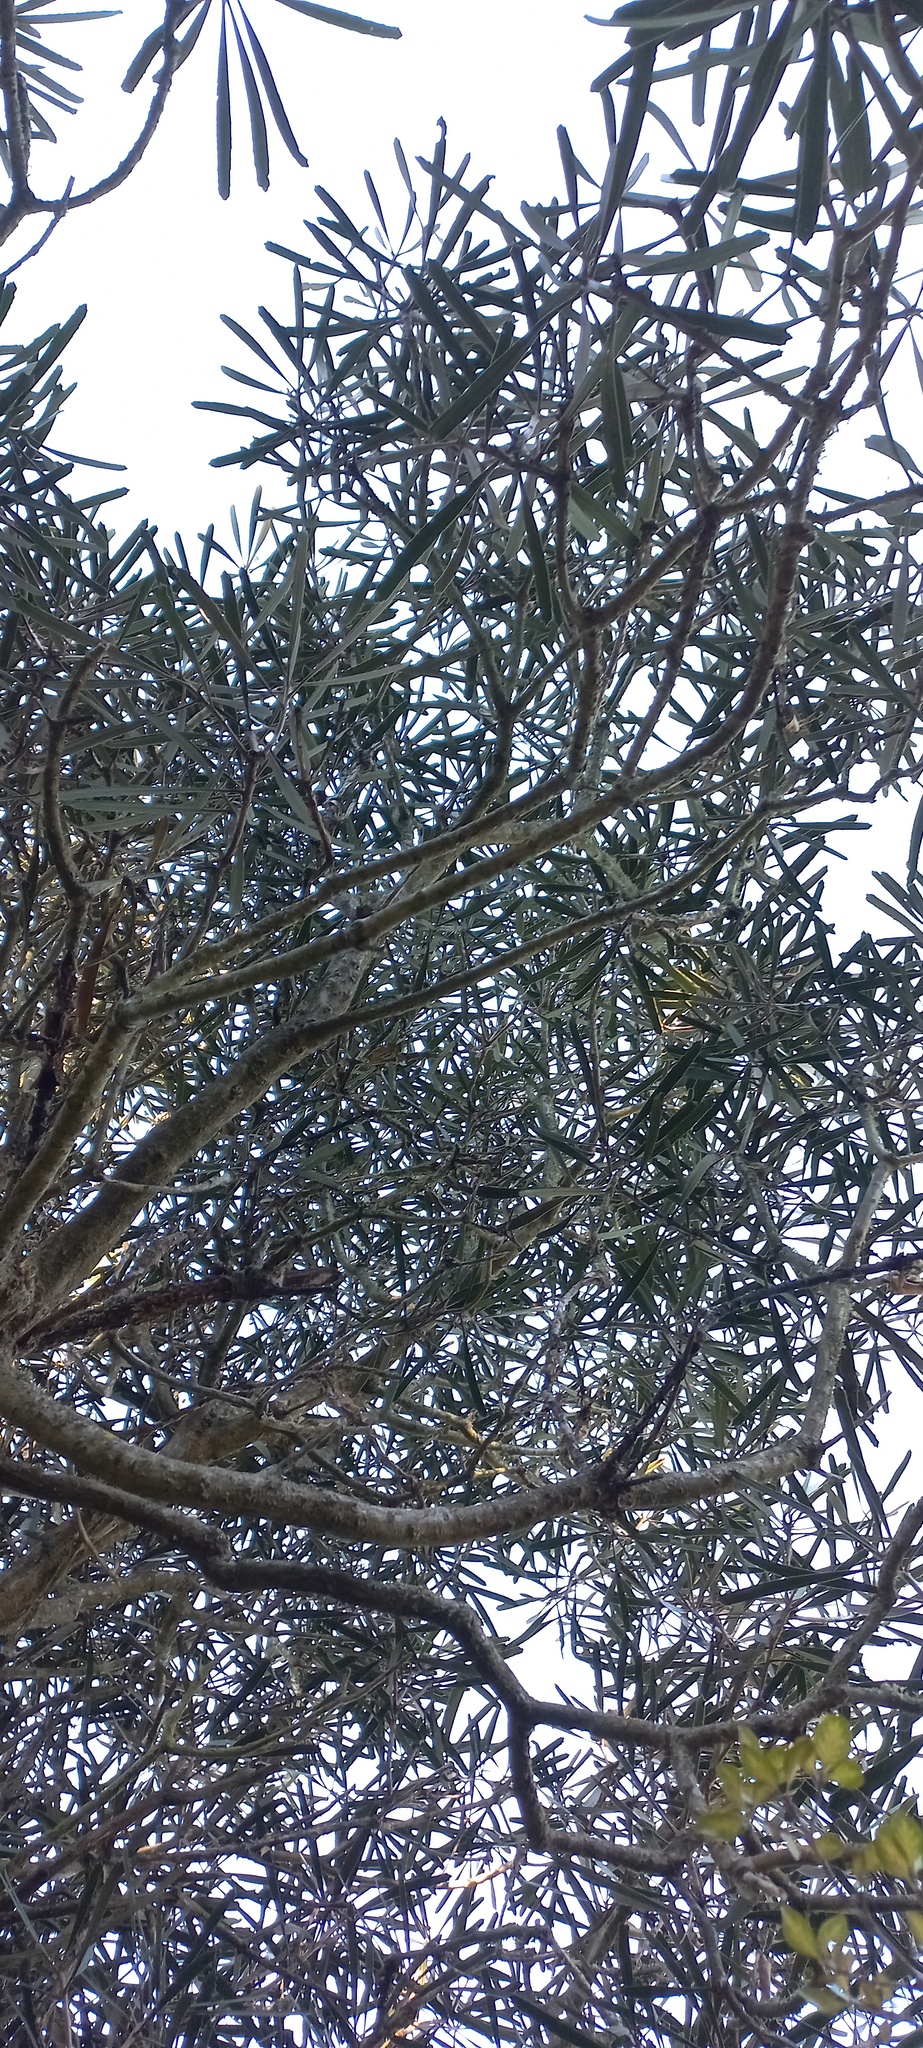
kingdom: Plantae
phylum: Tracheophyta
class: Magnoliopsida
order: Apiales
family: Araliaceae
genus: Pseudopanax
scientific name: Pseudopanax crassifolius
